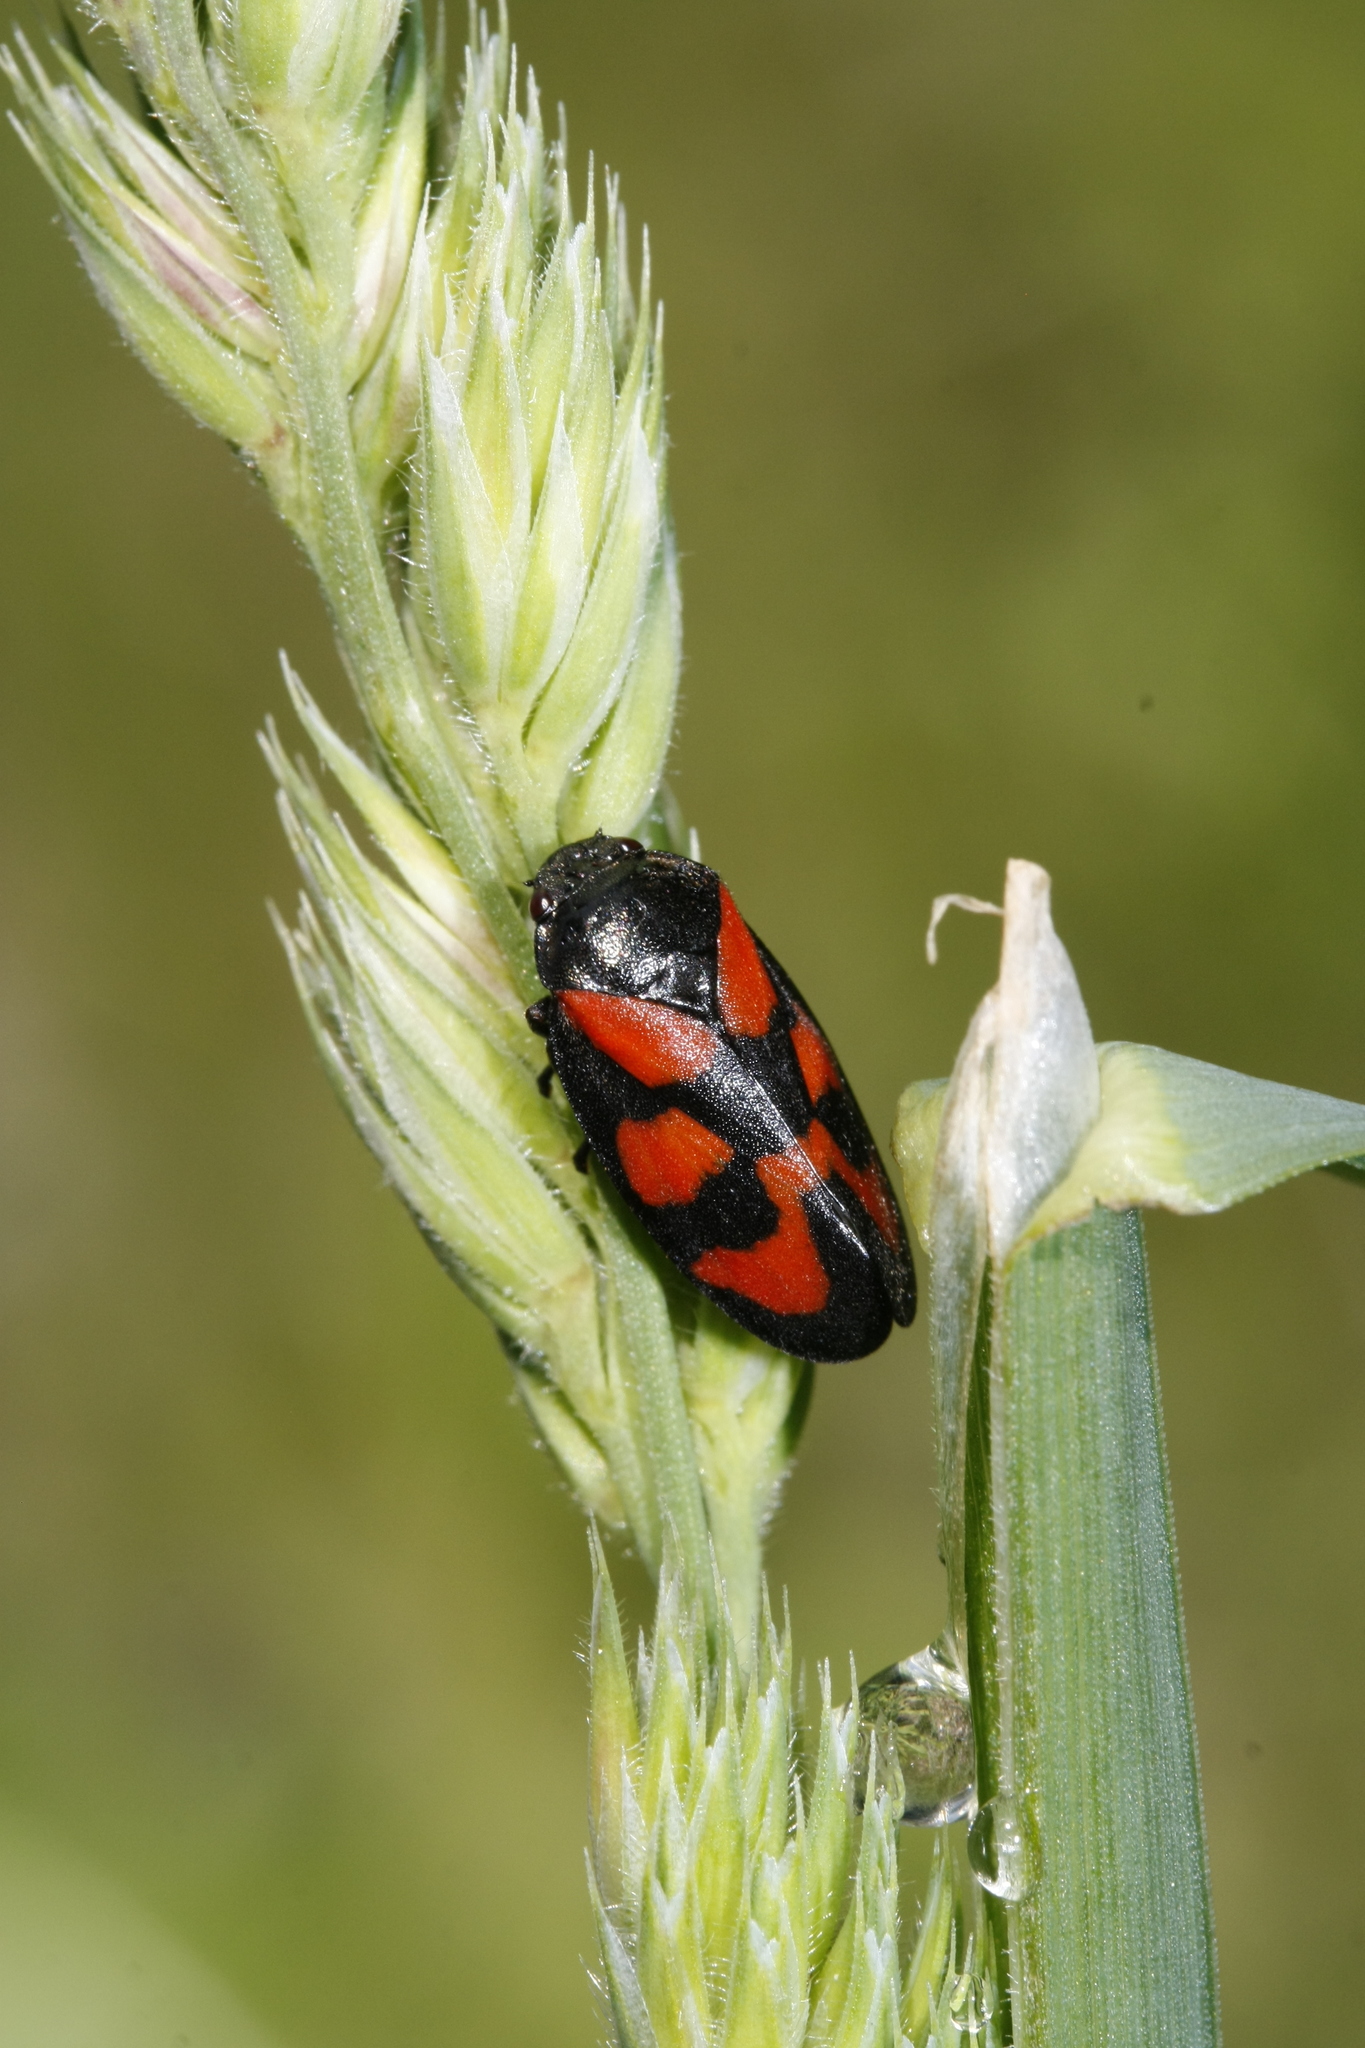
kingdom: Animalia
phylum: Arthropoda
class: Insecta
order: Hemiptera
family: Cercopidae
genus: Cercopis
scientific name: Cercopis vulnerata
